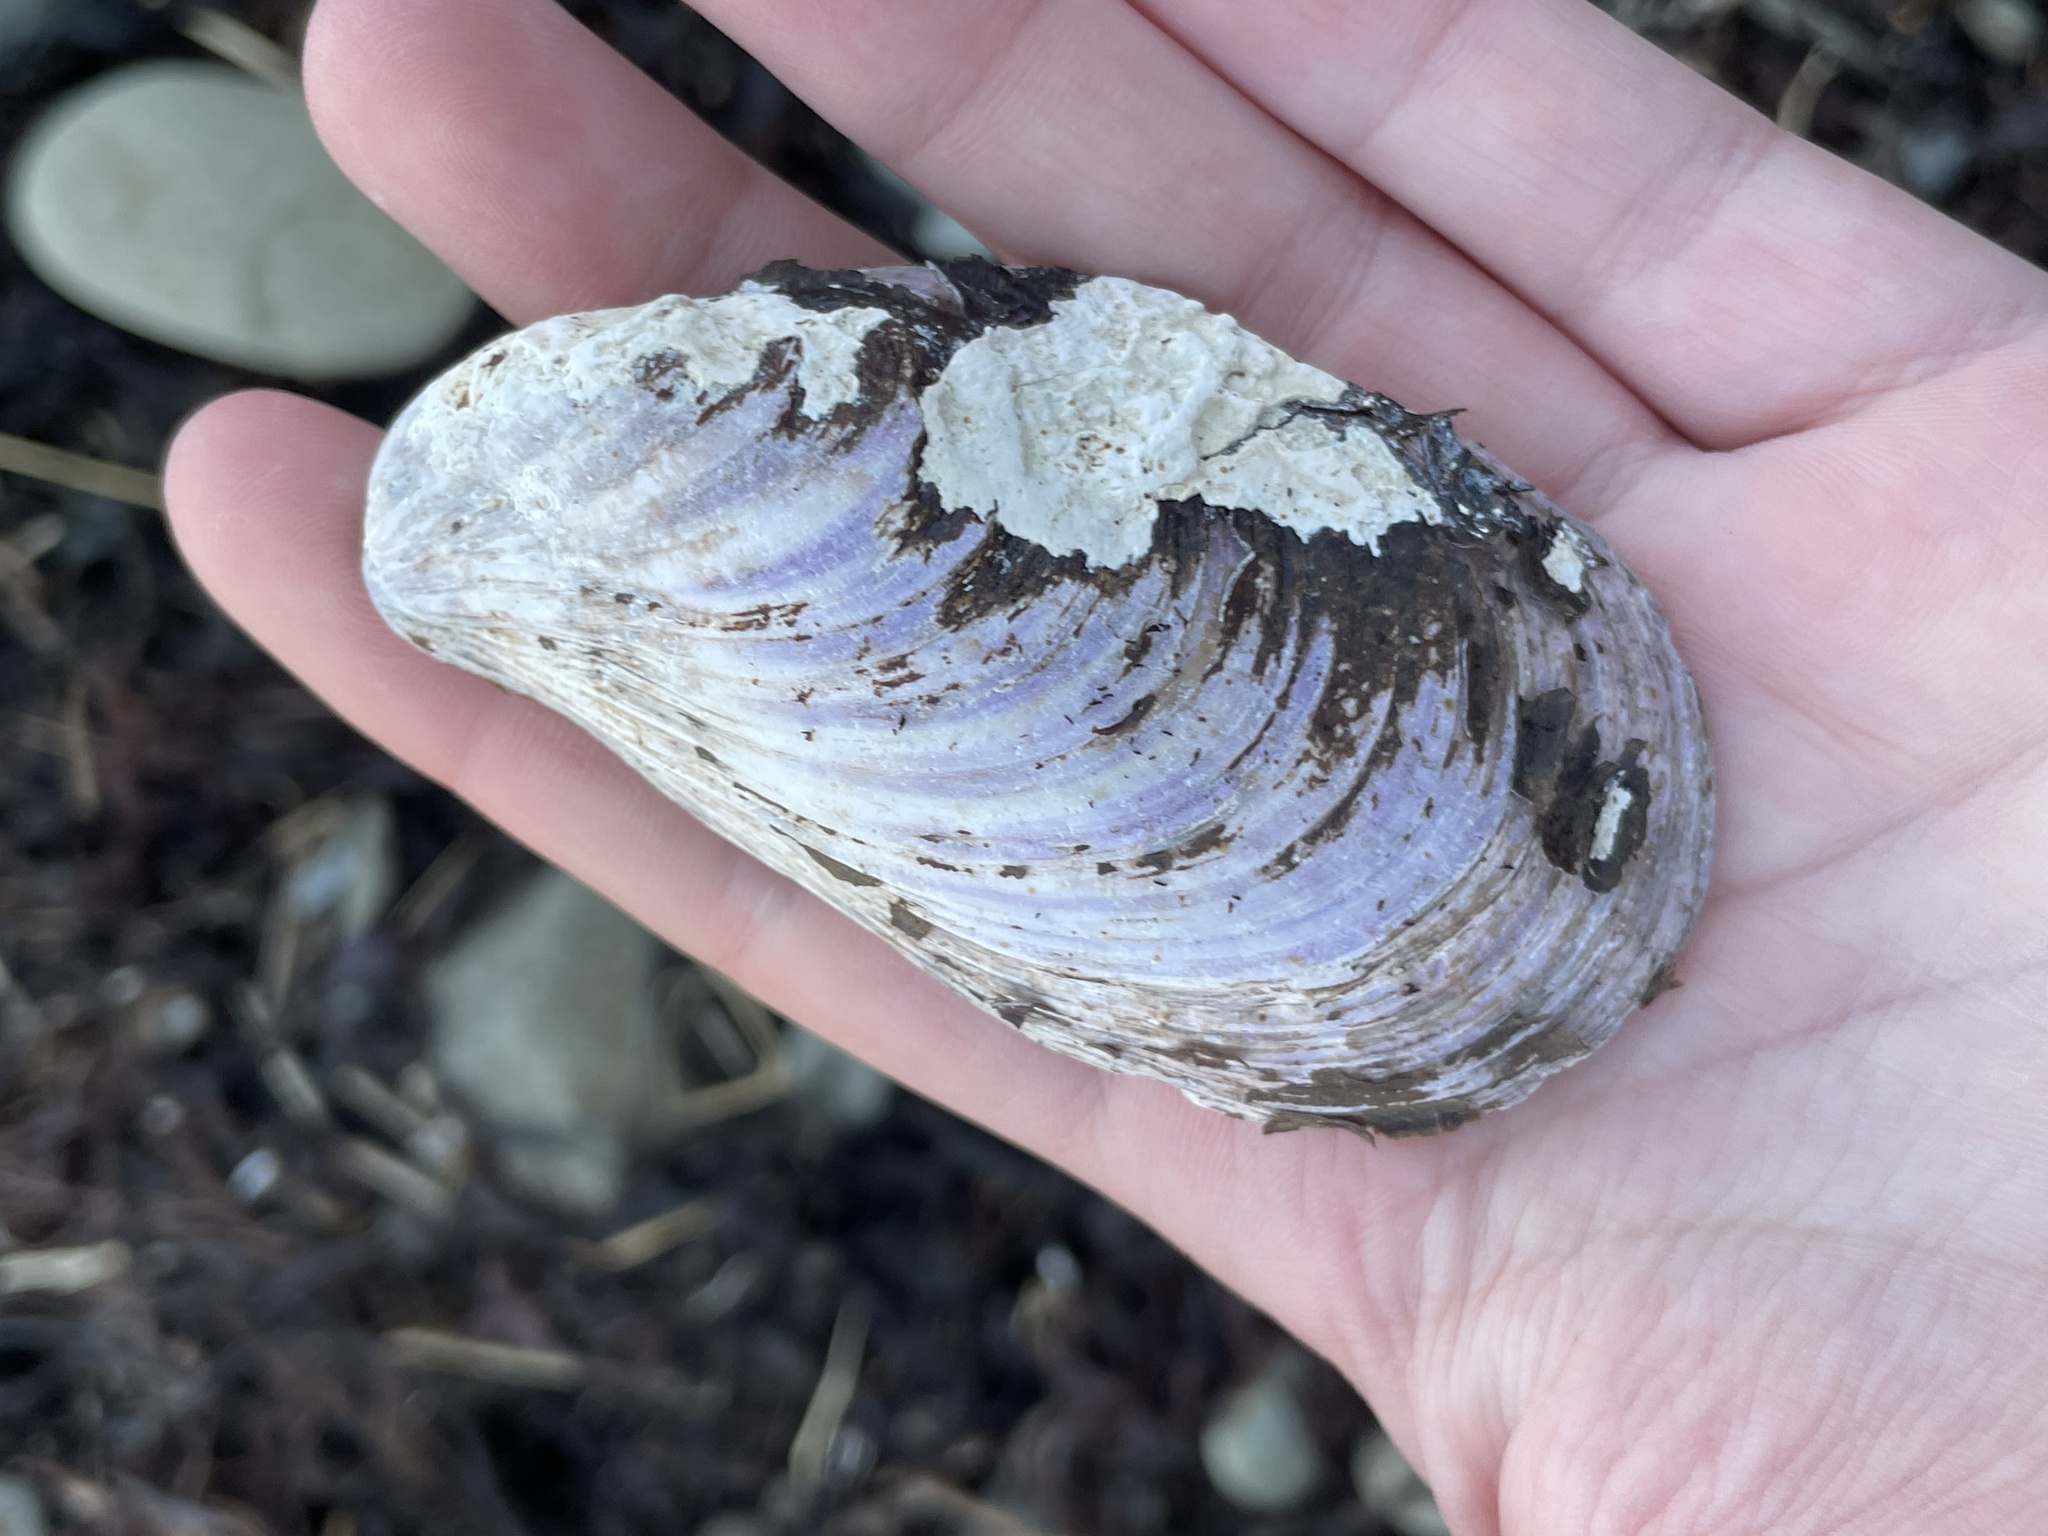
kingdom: Animalia
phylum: Mollusca
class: Bivalvia
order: Mytilida
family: Mytilidae
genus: Modiolus
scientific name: Modiolus modiolus
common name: Horse-mussel
